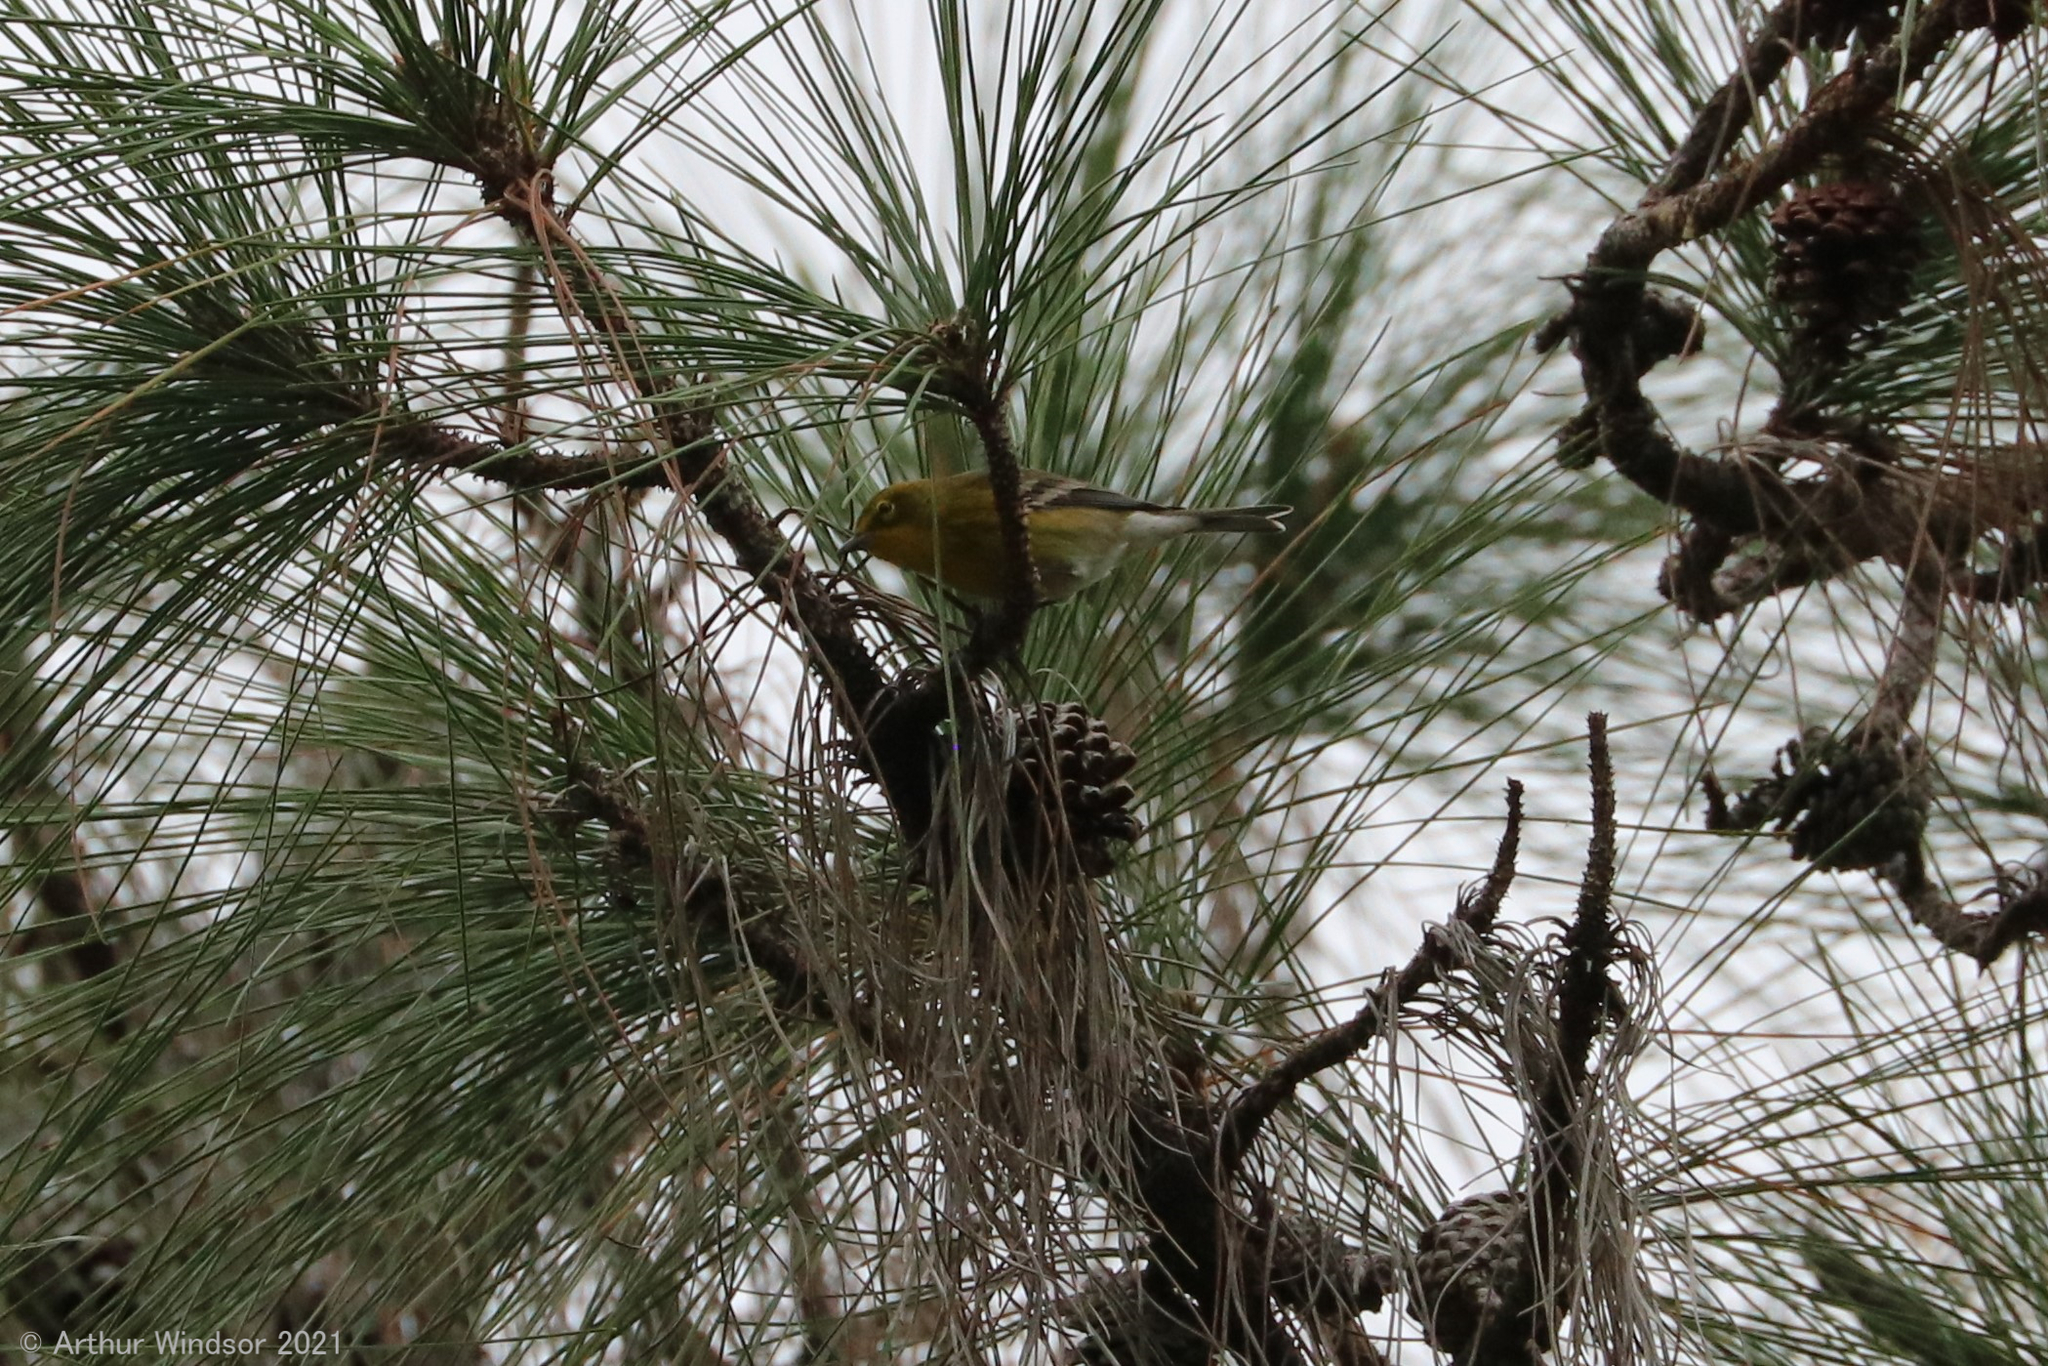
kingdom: Animalia
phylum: Chordata
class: Aves
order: Passeriformes
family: Parulidae
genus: Setophaga
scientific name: Setophaga pinus
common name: Pine warbler
